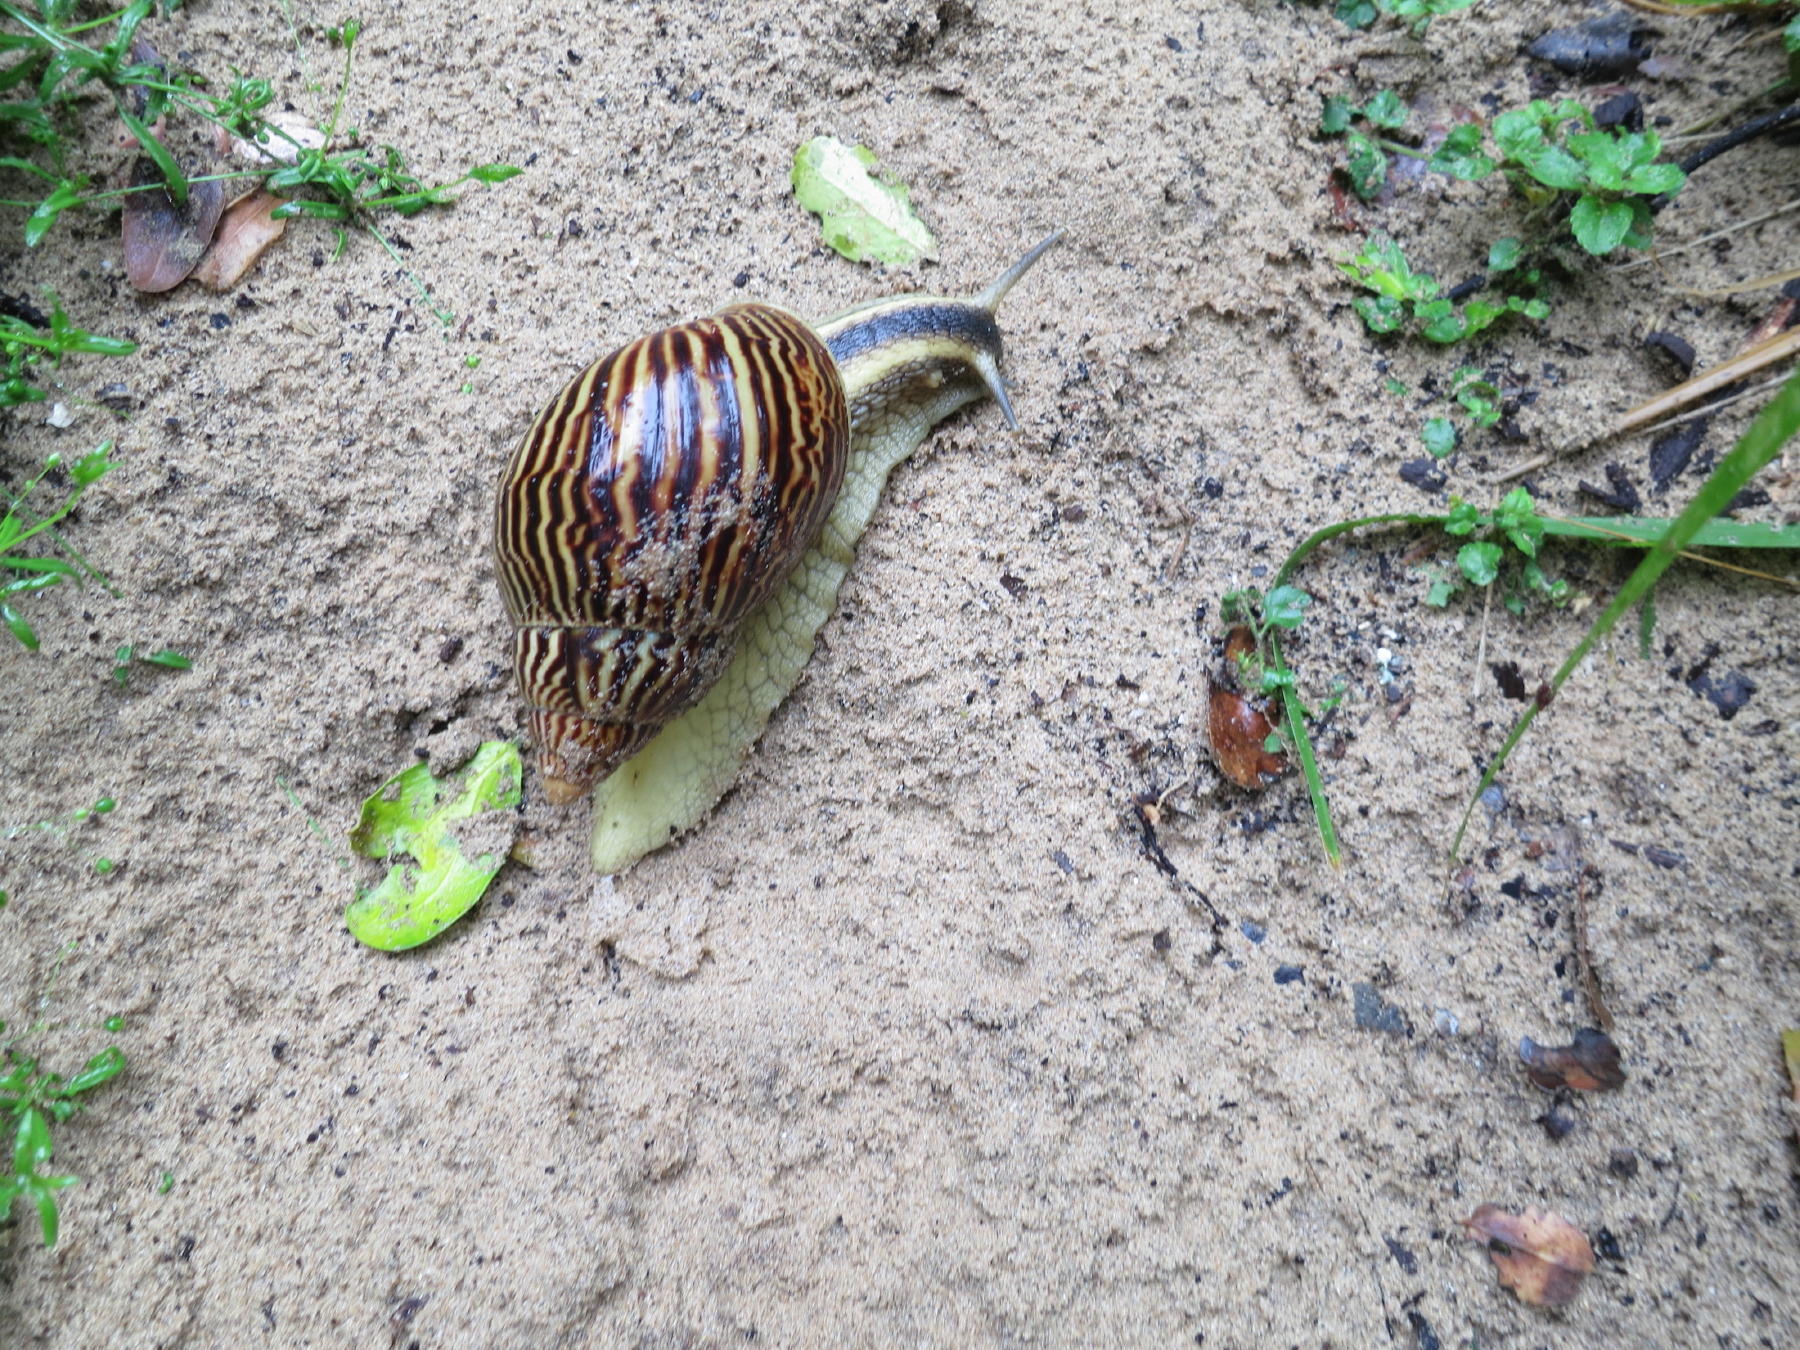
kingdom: Animalia
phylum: Mollusca
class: Gastropoda
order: Stylommatophora
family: Achatinidae
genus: Cochlitoma
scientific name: Cochlitoma zebra
